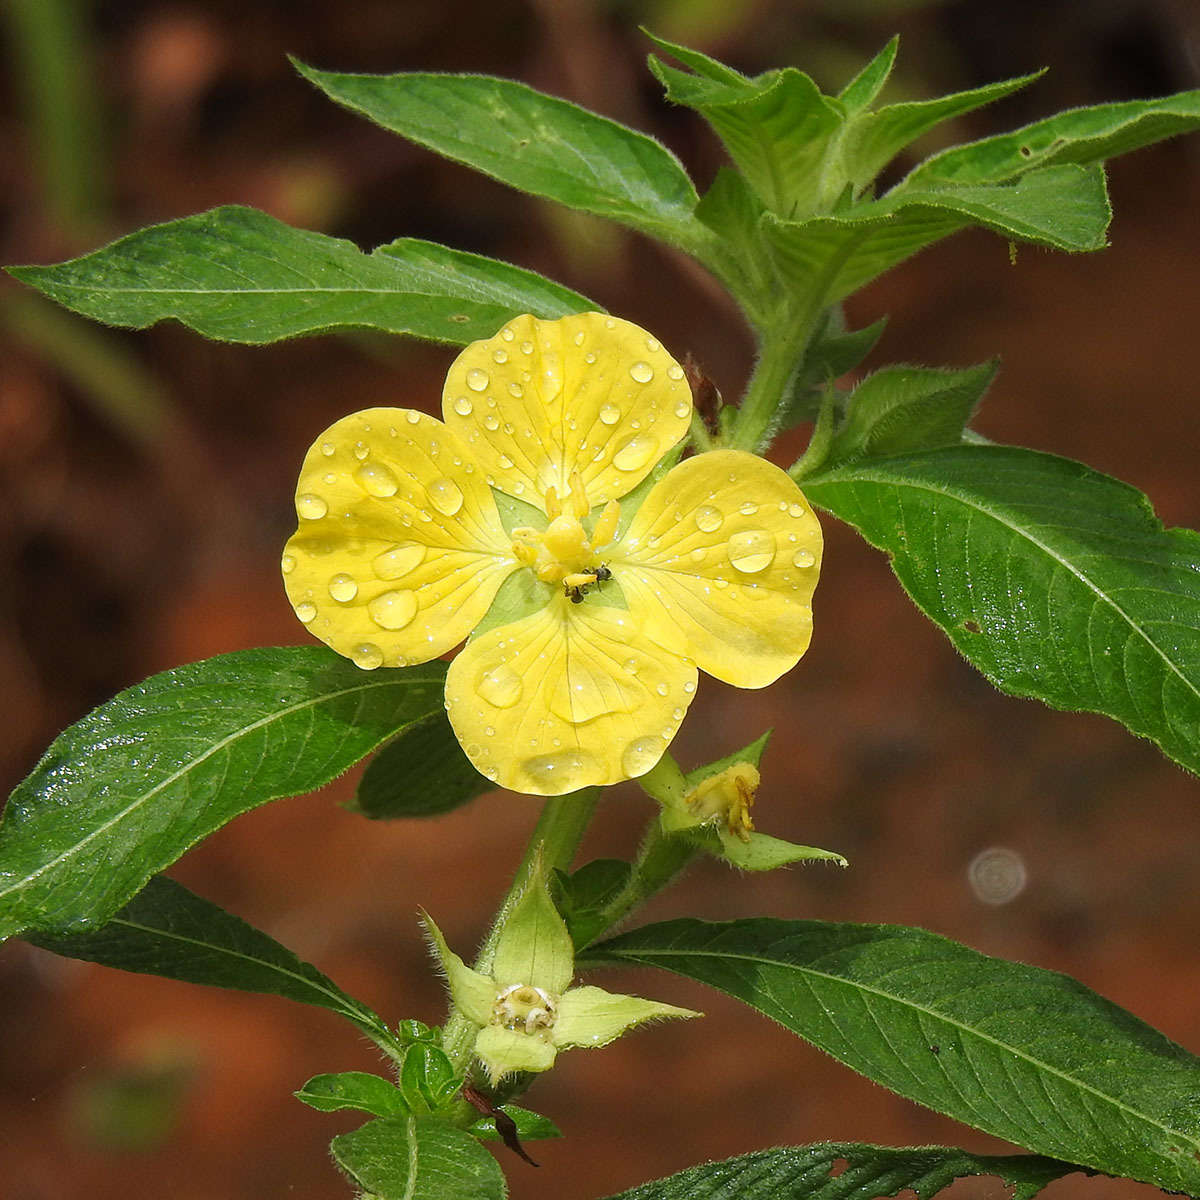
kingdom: Plantae
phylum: Tracheophyta
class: Magnoliopsida
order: Myrtales
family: Onagraceae
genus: Ludwigia
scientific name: Ludwigia peruviana
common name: Peruvian primrose-willow
